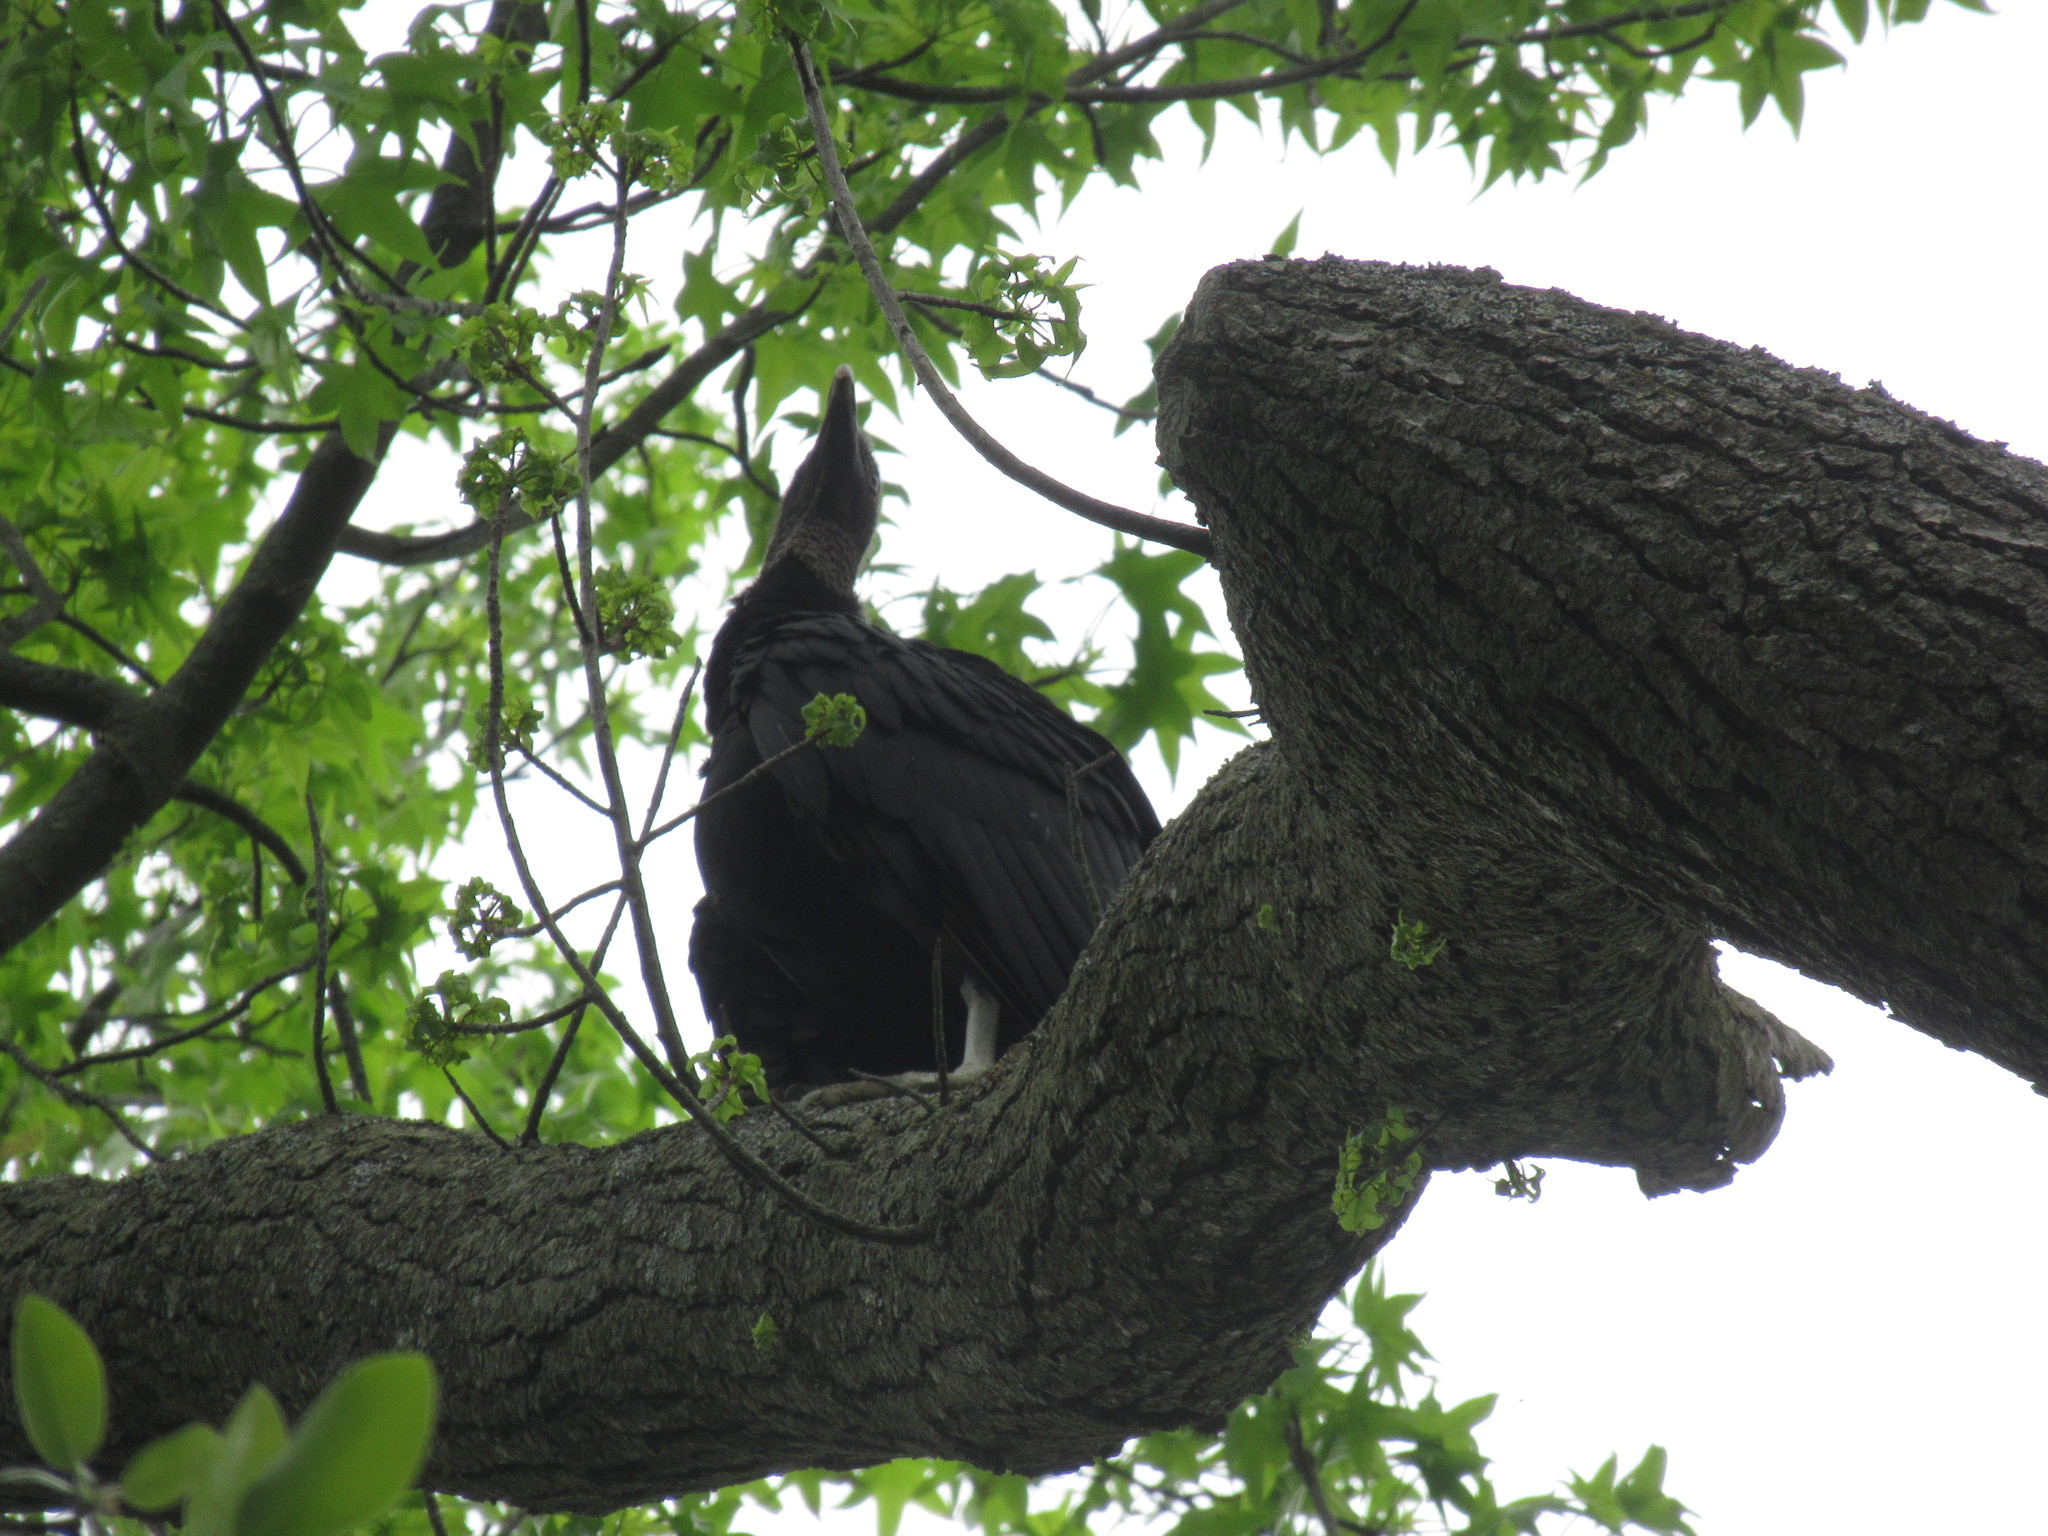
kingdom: Animalia
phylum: Chordata
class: Aves
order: Accipitriformes
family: Cathartidae
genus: Coragyps
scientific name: Coragyps atratus
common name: Black vulture
